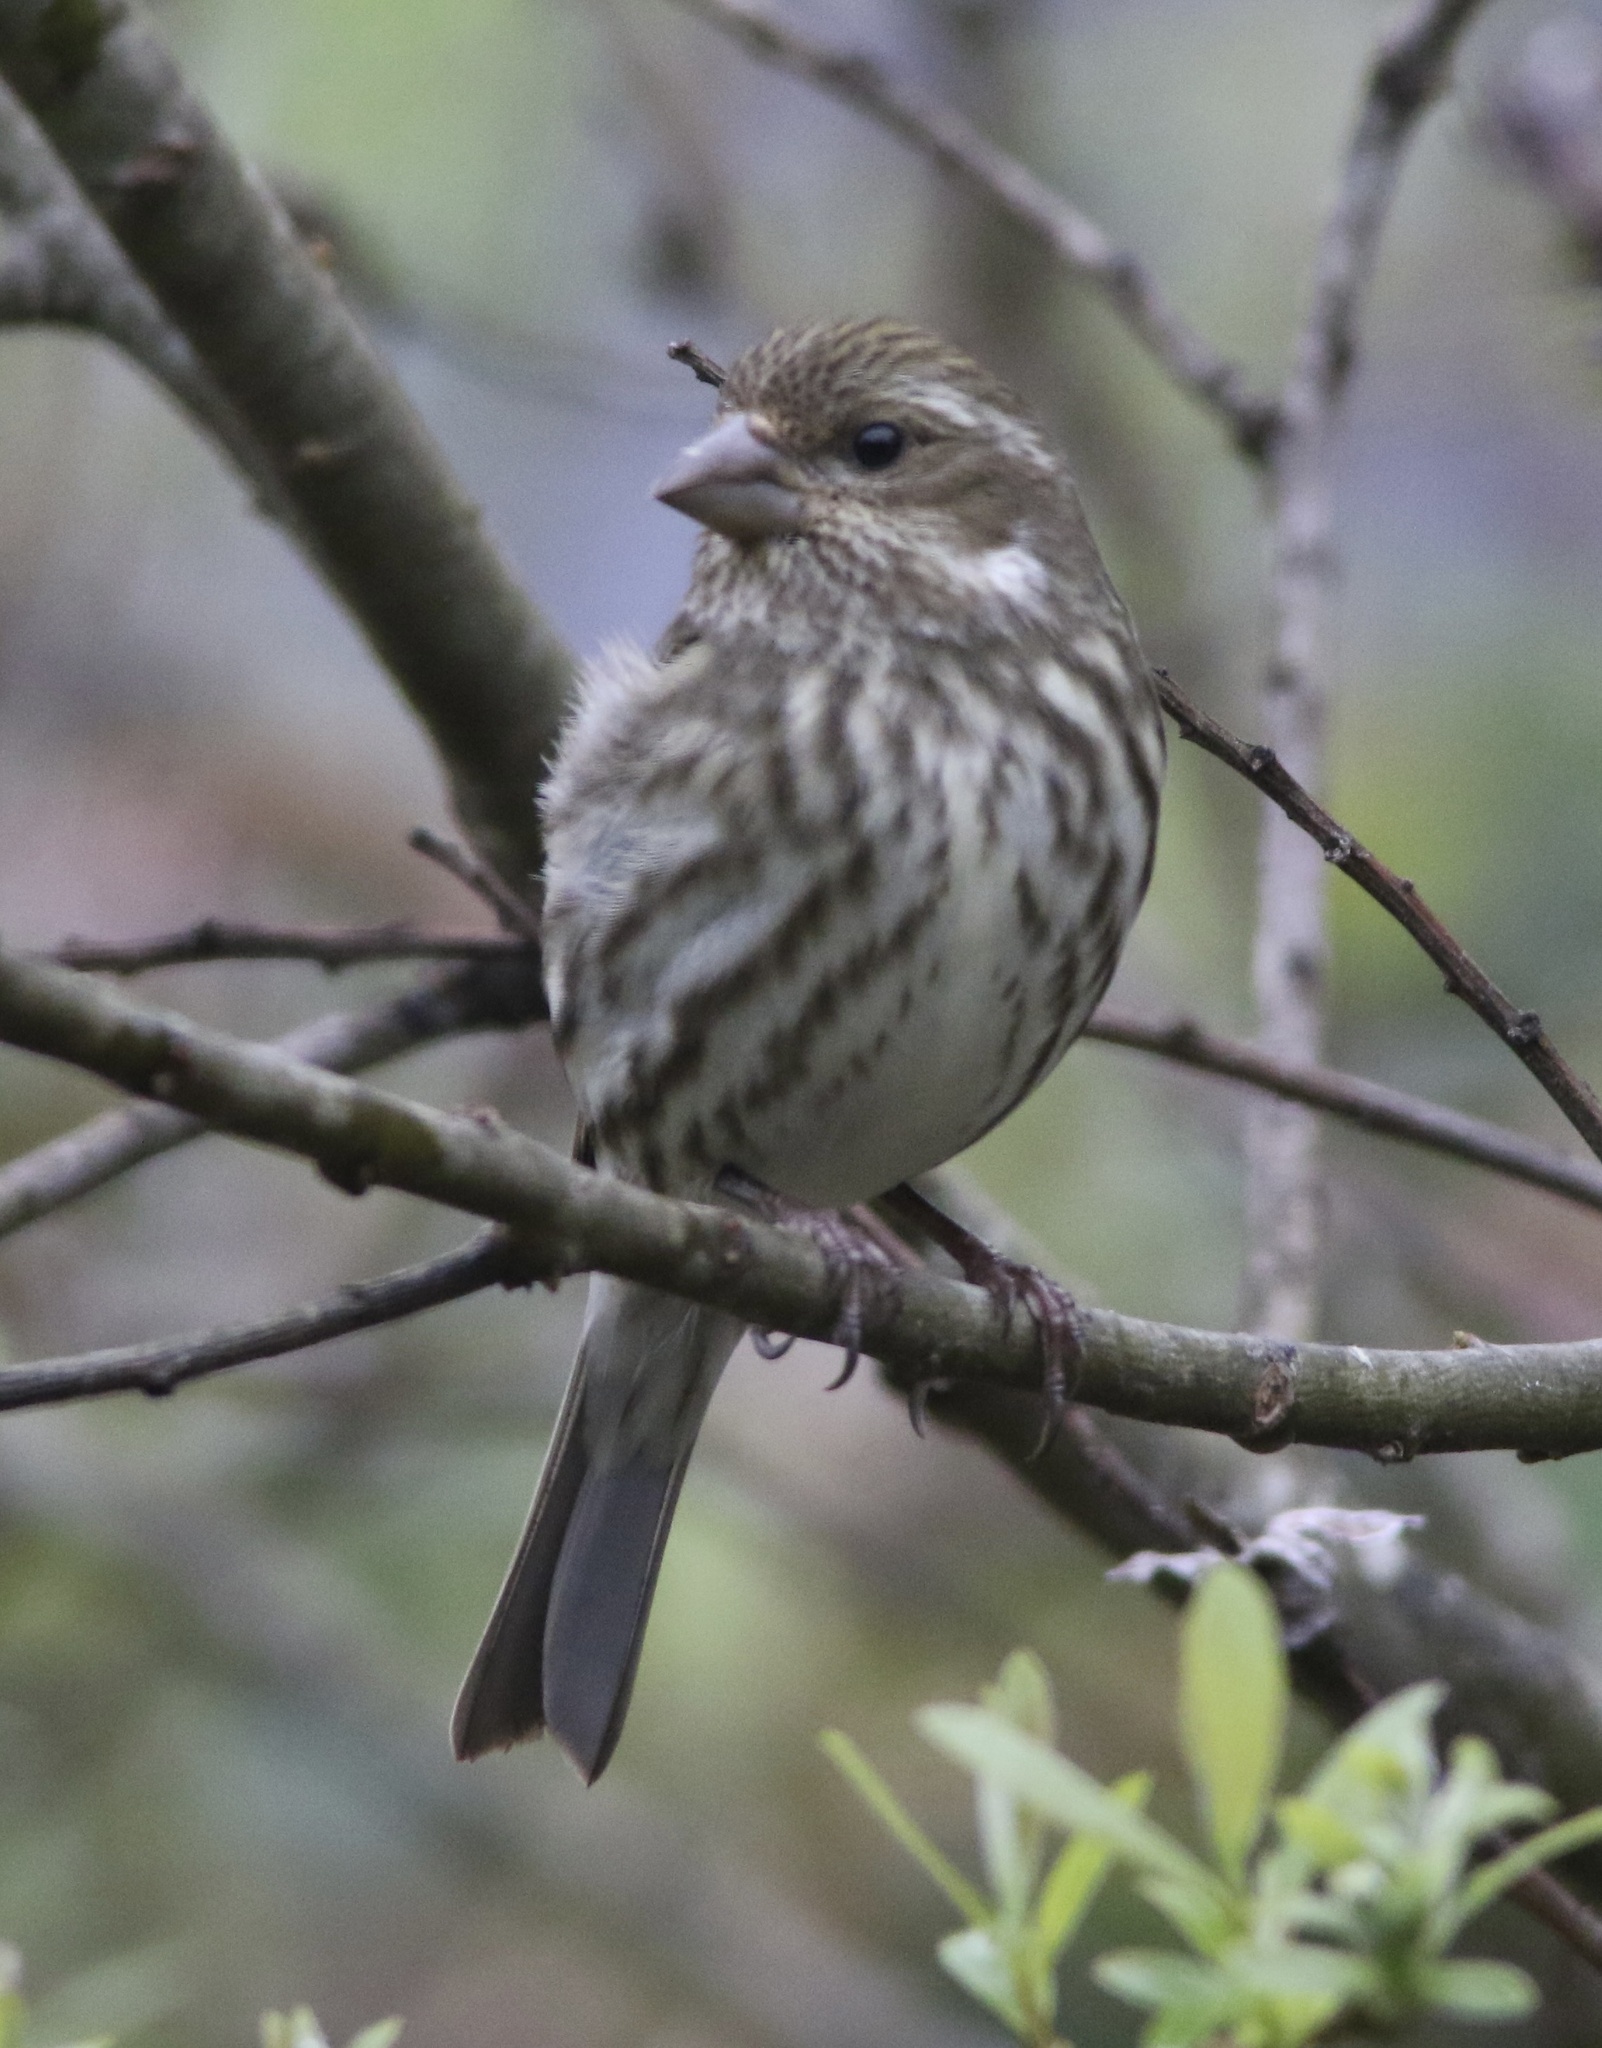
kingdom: Animalia
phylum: Chordata
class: Aves
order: Passeriformes
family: Fringillidae
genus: Haemorhous
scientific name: Haemorhous purpureus
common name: Purple finch
